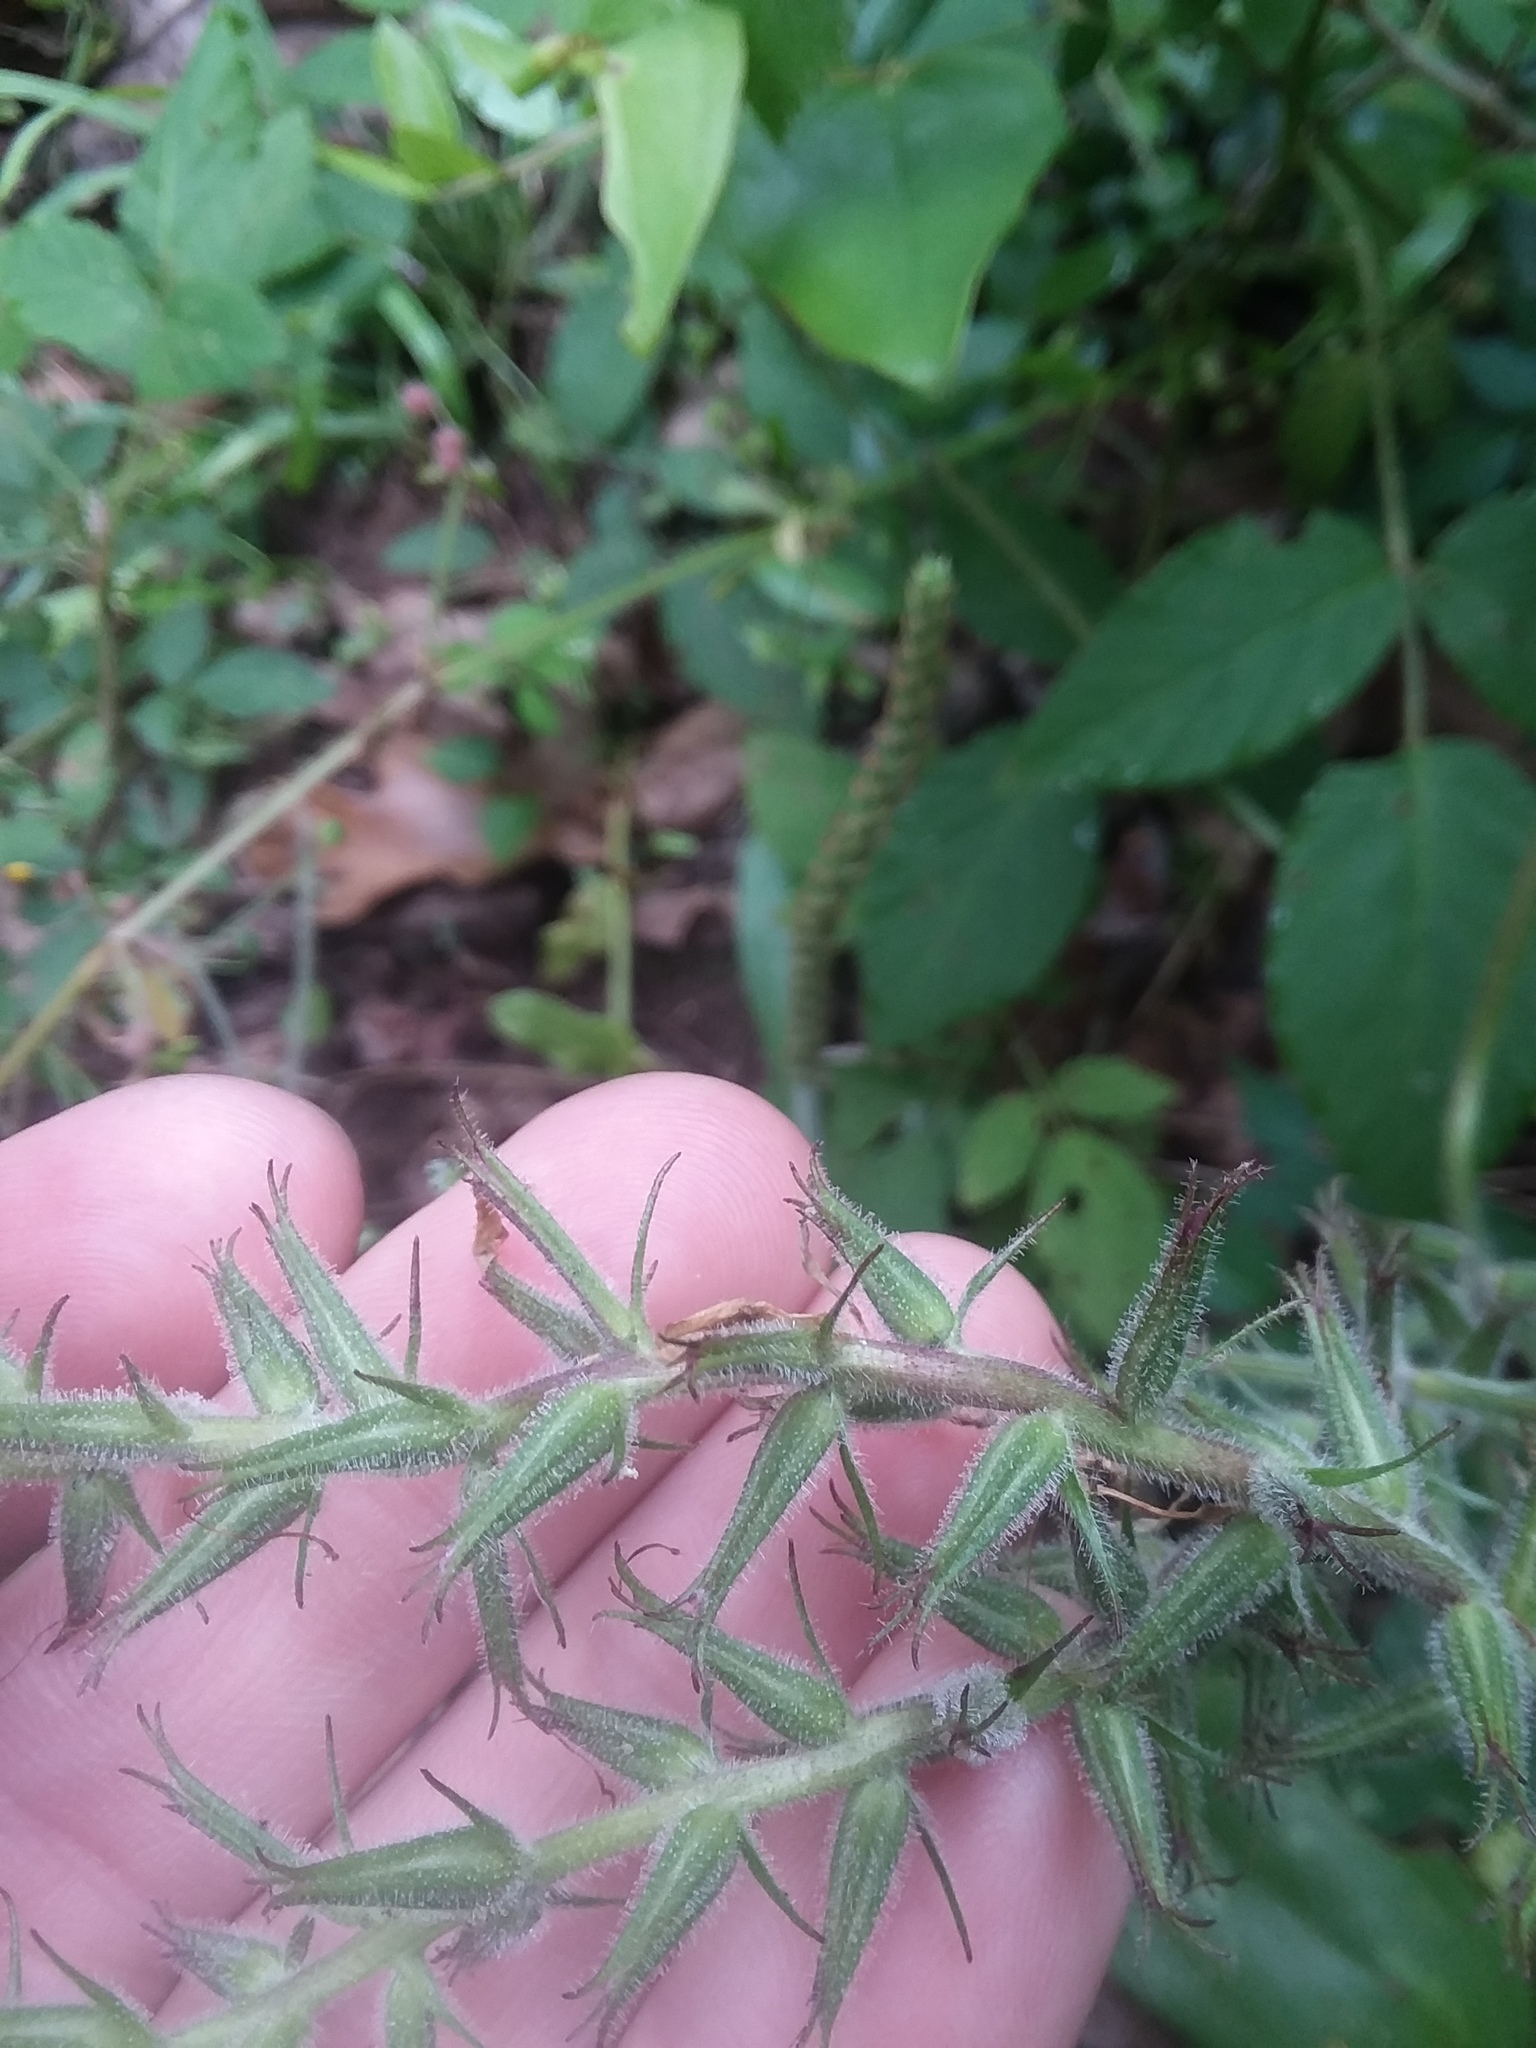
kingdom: Plantae
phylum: Tracheophyta
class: Magnoliopsida
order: Lamiales
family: Verbenaceae
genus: Verbena
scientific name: Verbena canadensis
